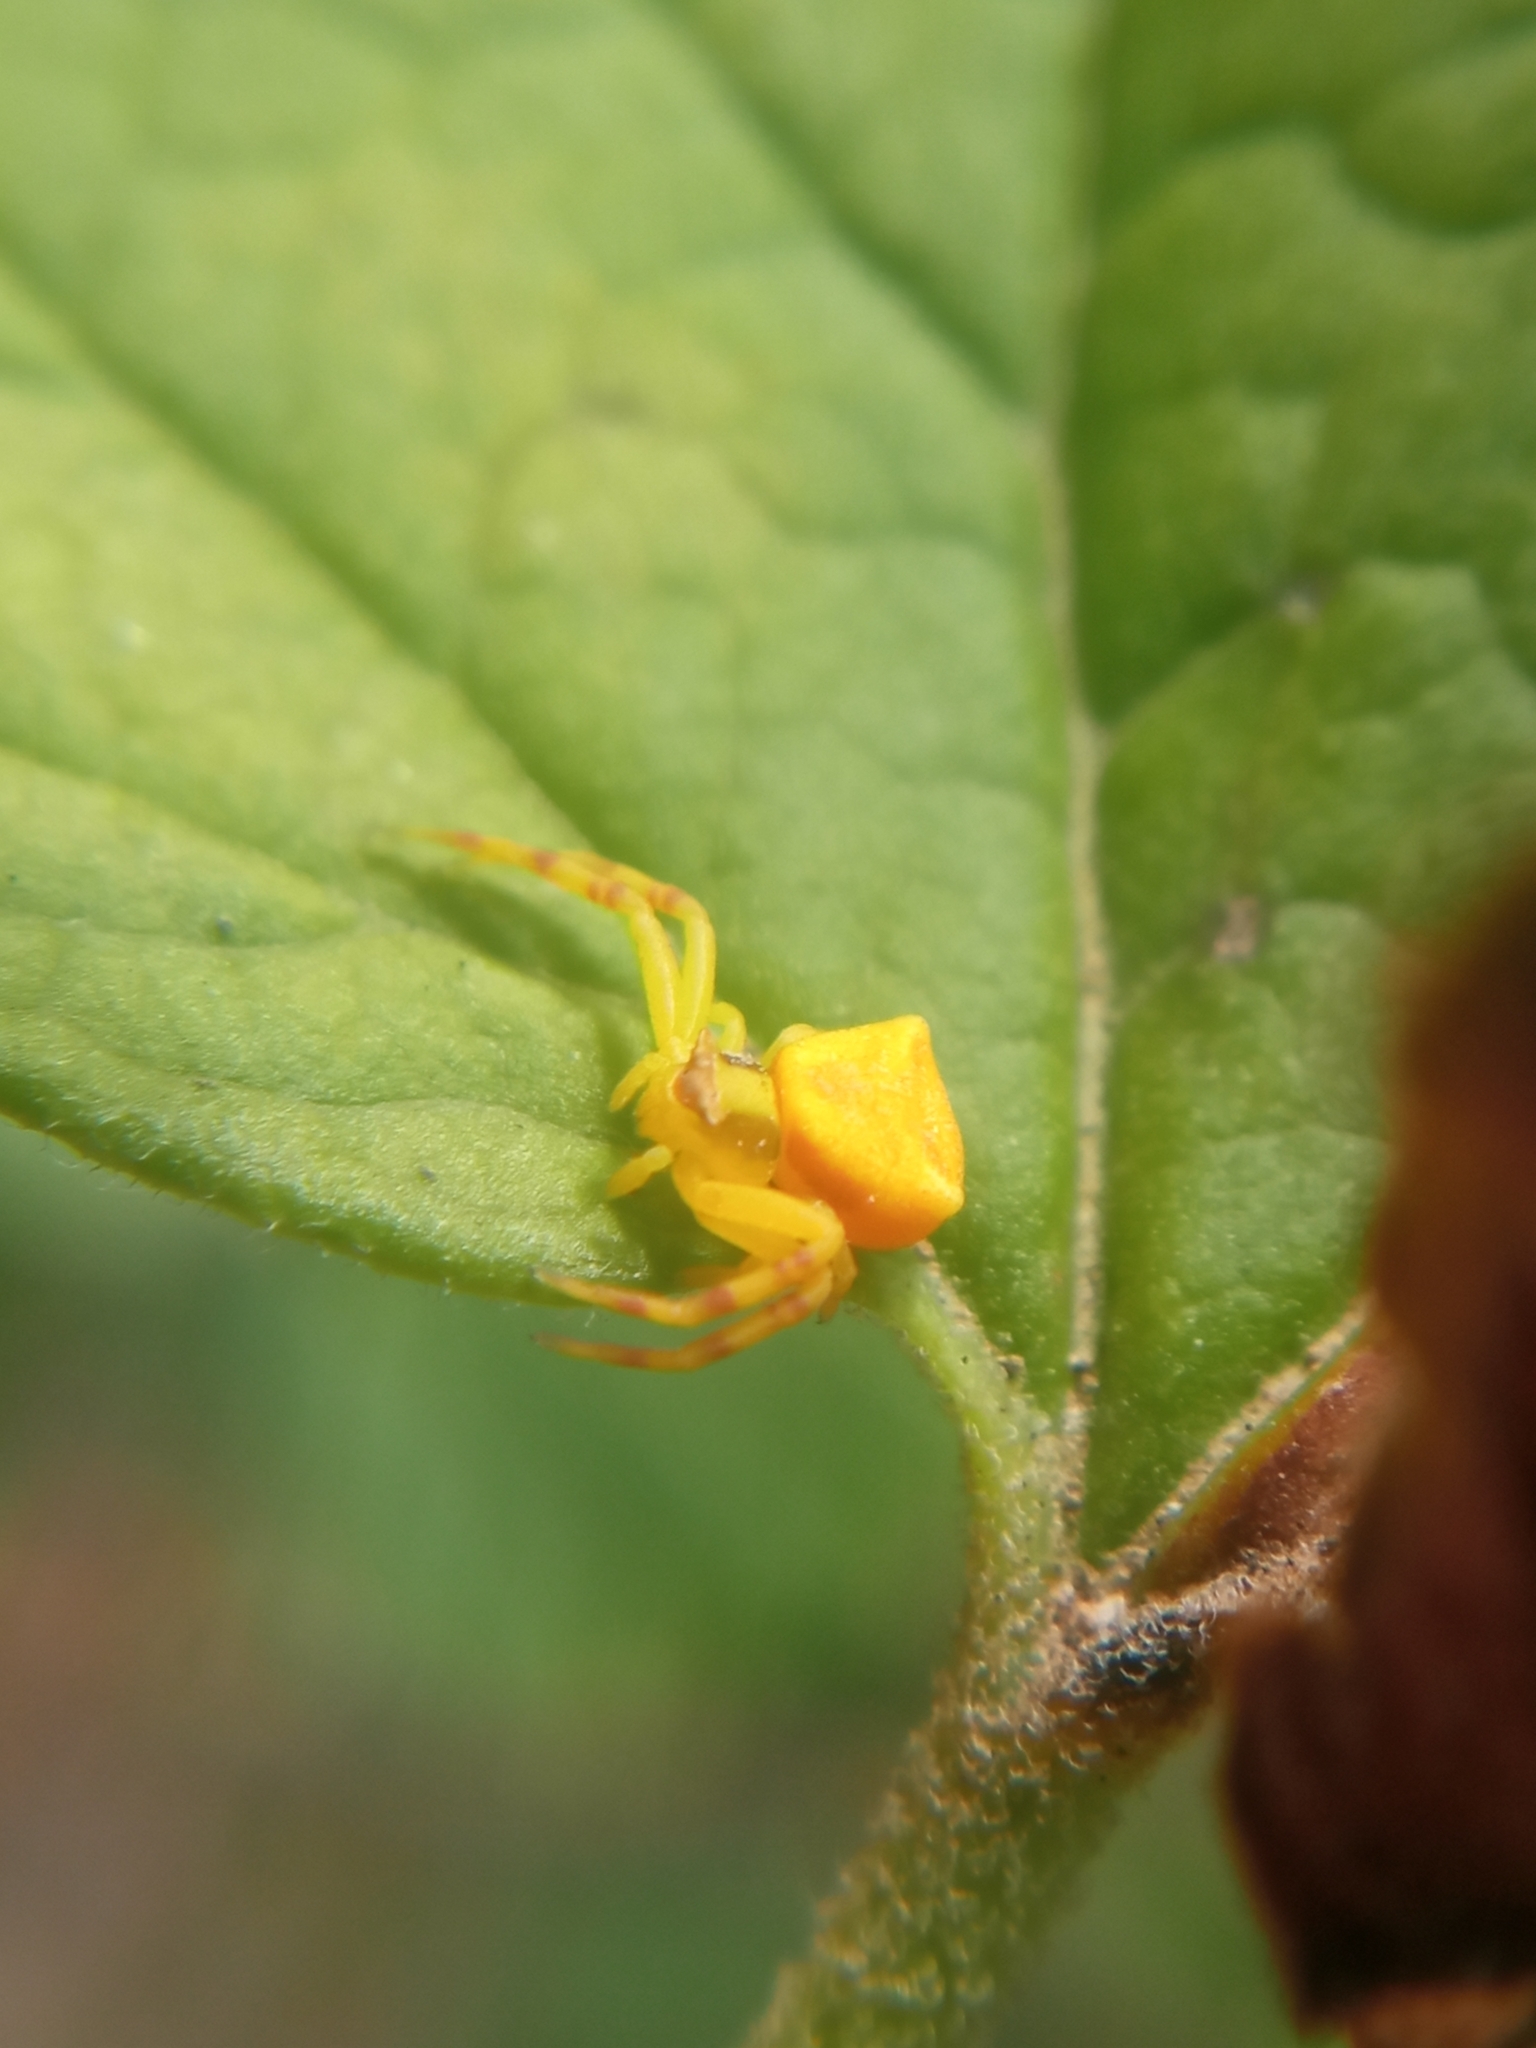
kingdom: Animalia
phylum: Arthropoda
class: Arachnida
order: Araneae
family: Thomisidae
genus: Thomisus
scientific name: Thomisus onustus
